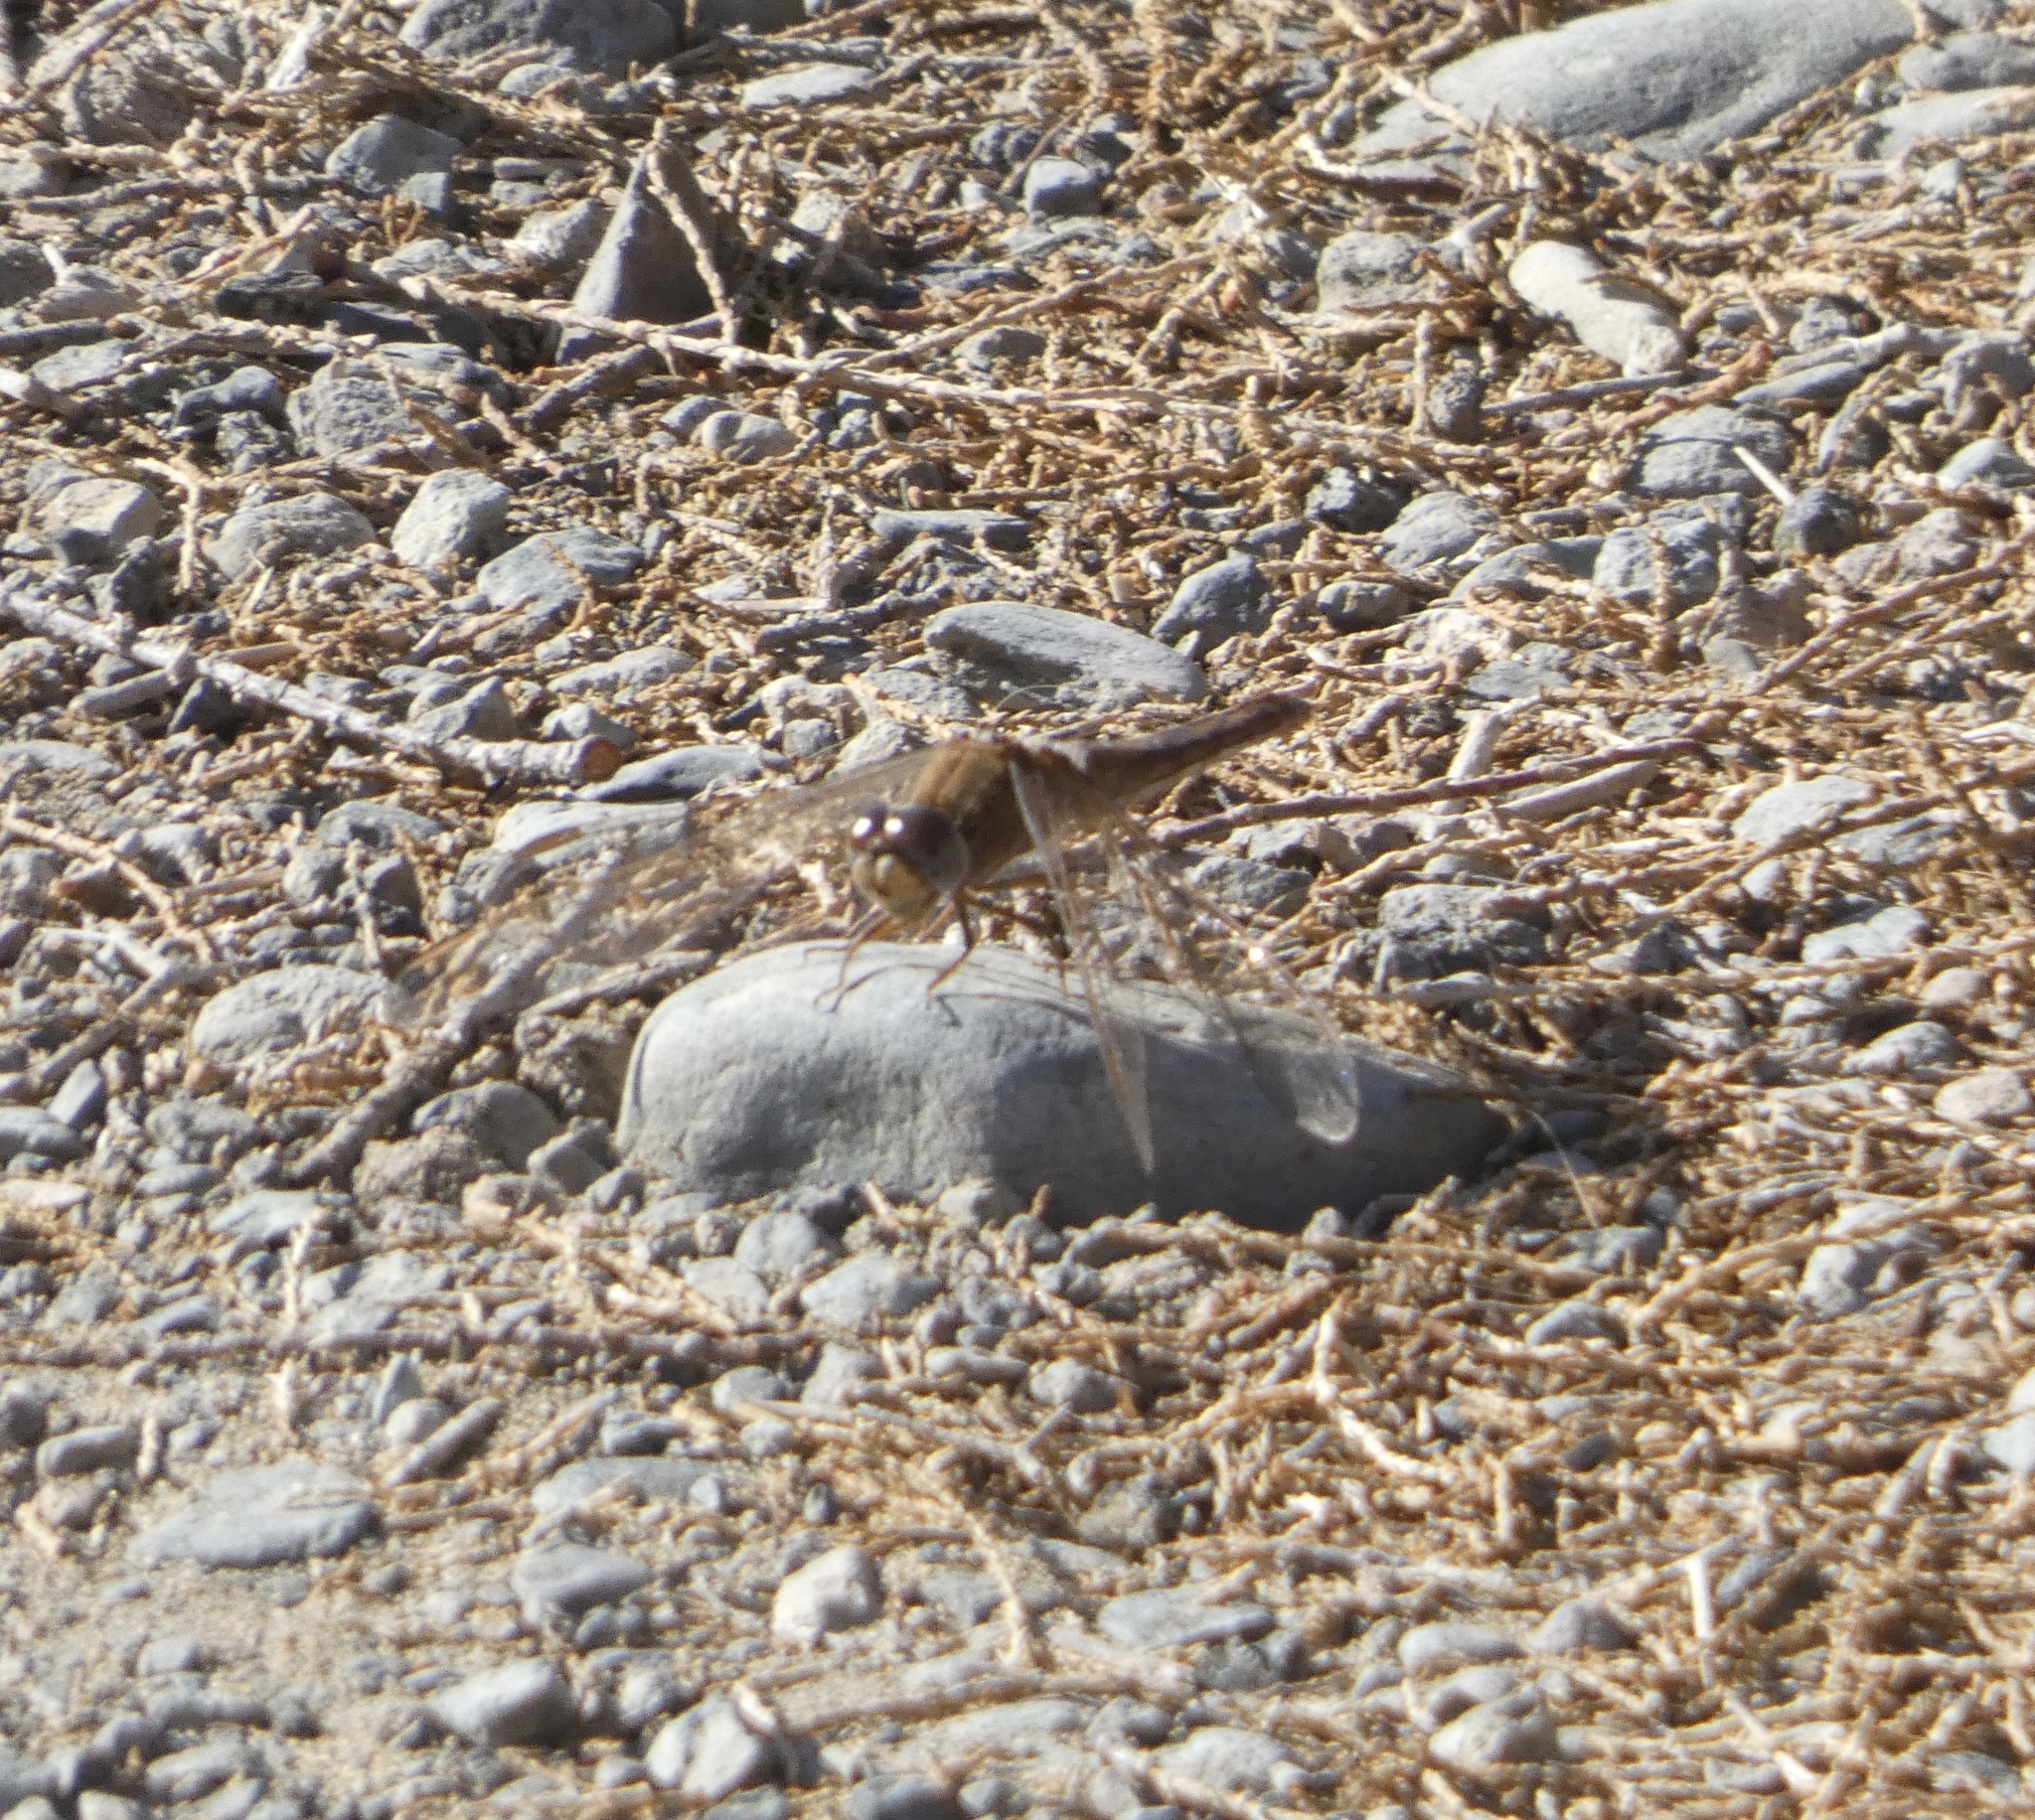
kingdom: Animalia
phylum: Arthropoda
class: Insecta
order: Odonata
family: Libellulidae
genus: Crocothemis
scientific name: Crocothemis erythraea
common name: Scarlet dragonfly
